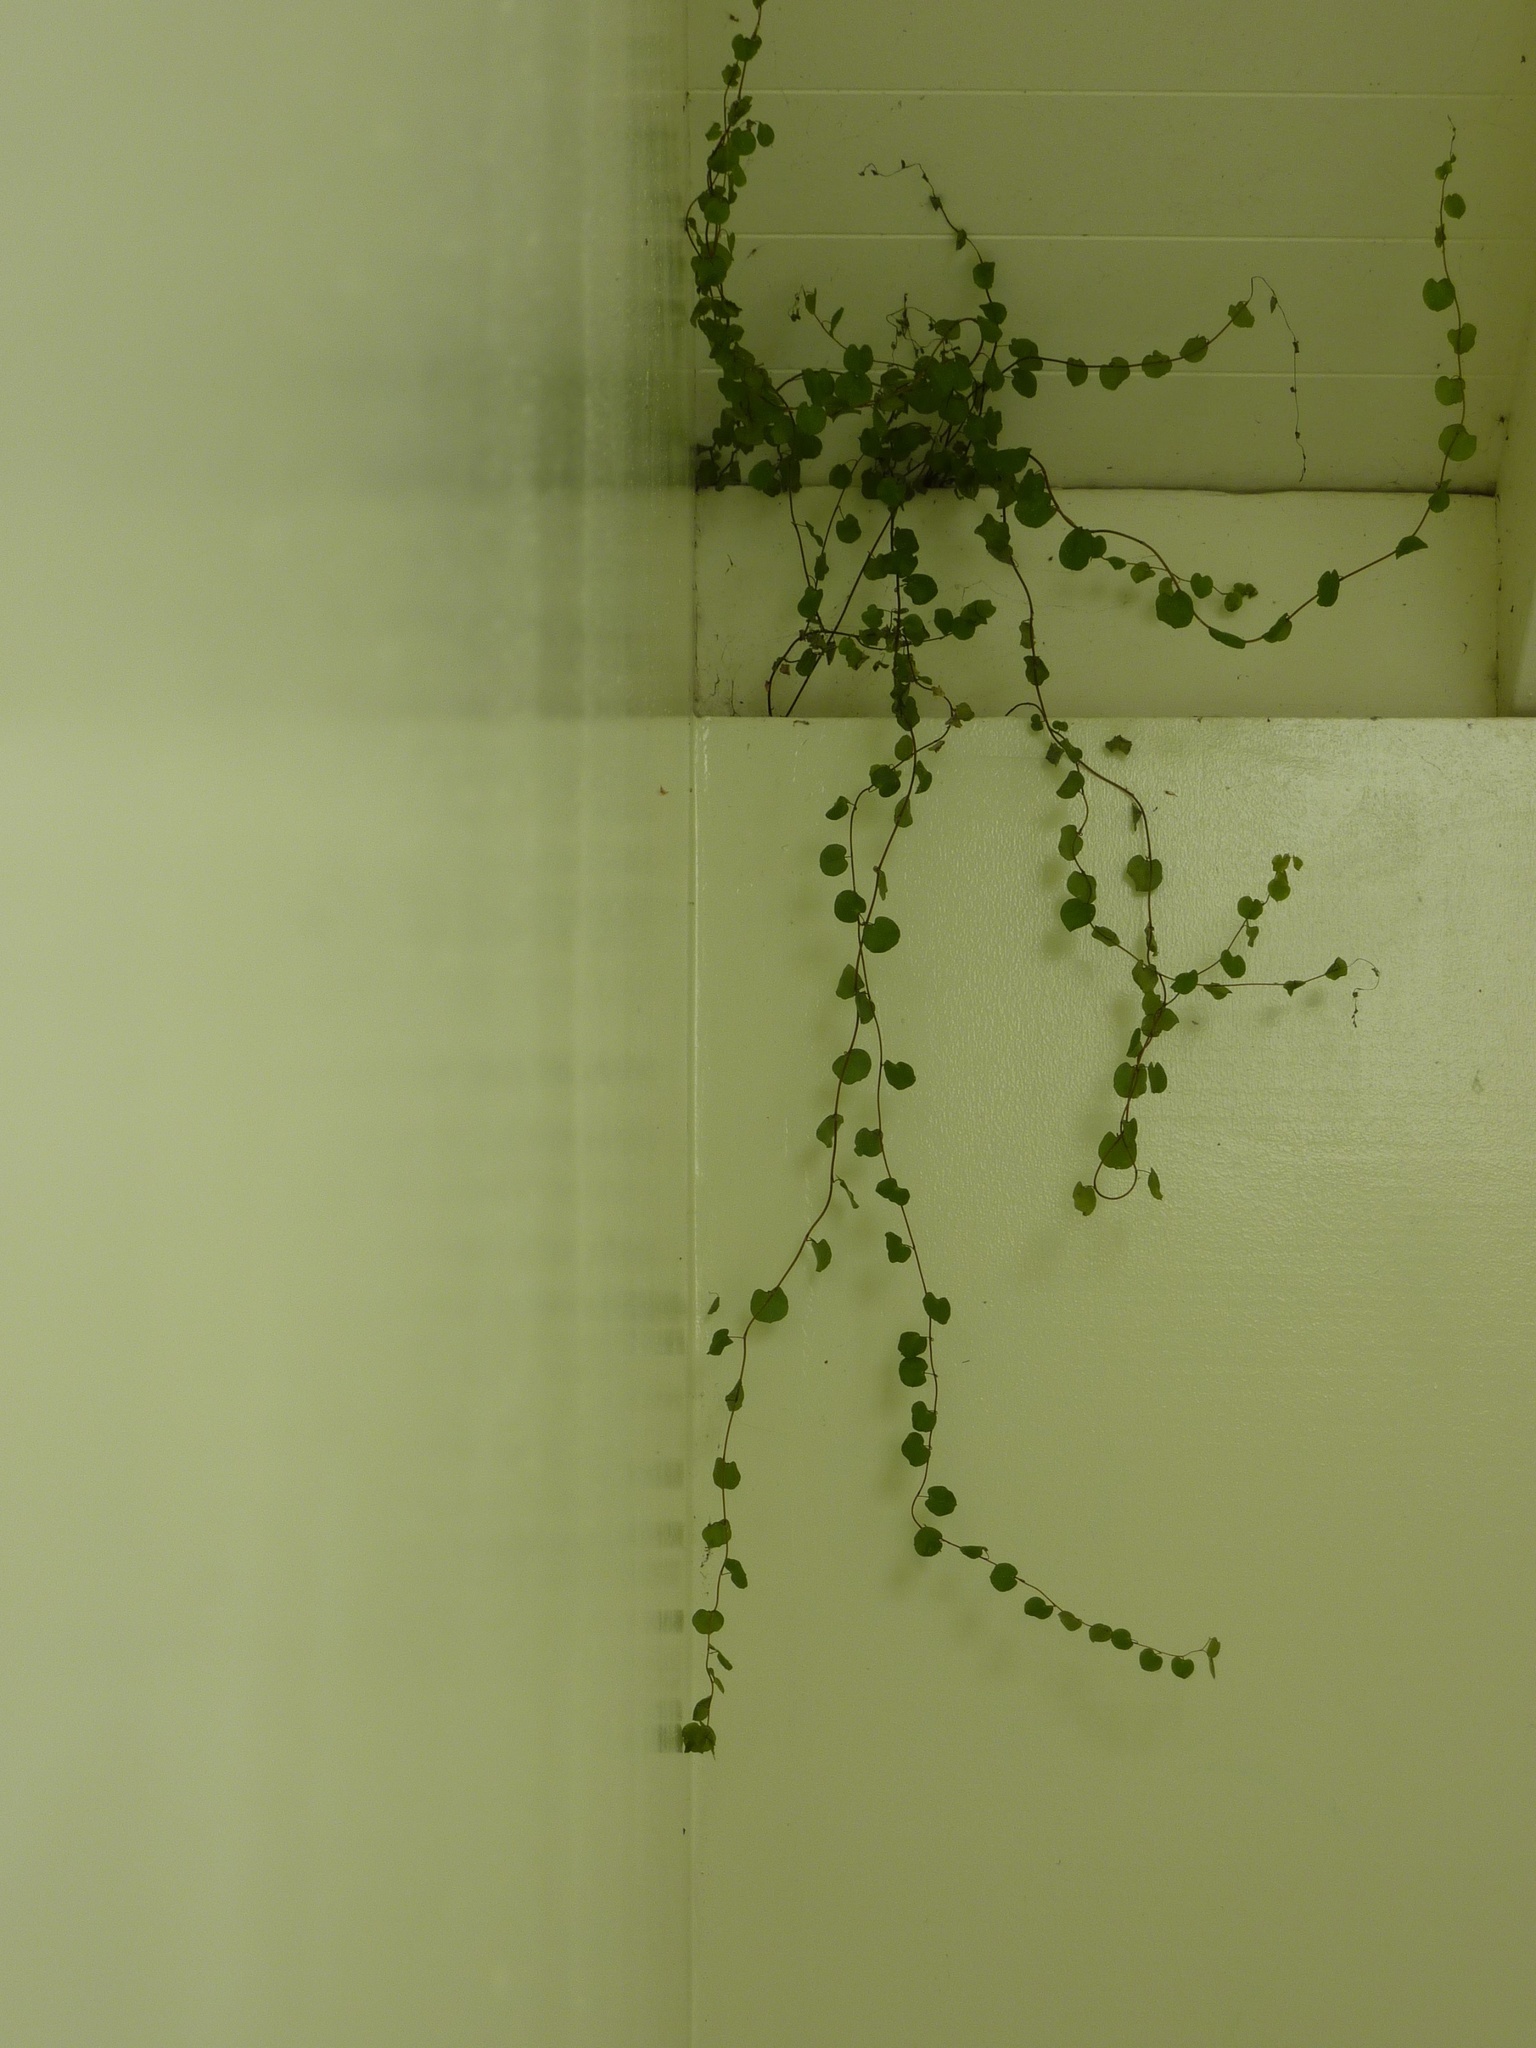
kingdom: Plantae
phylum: Tracheophyta
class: Magnoliopsida
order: Caryophyllales
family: Polygonaceae
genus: Muehlenbeckia
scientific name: Muehlenbeckia complexa
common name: Wireplant
